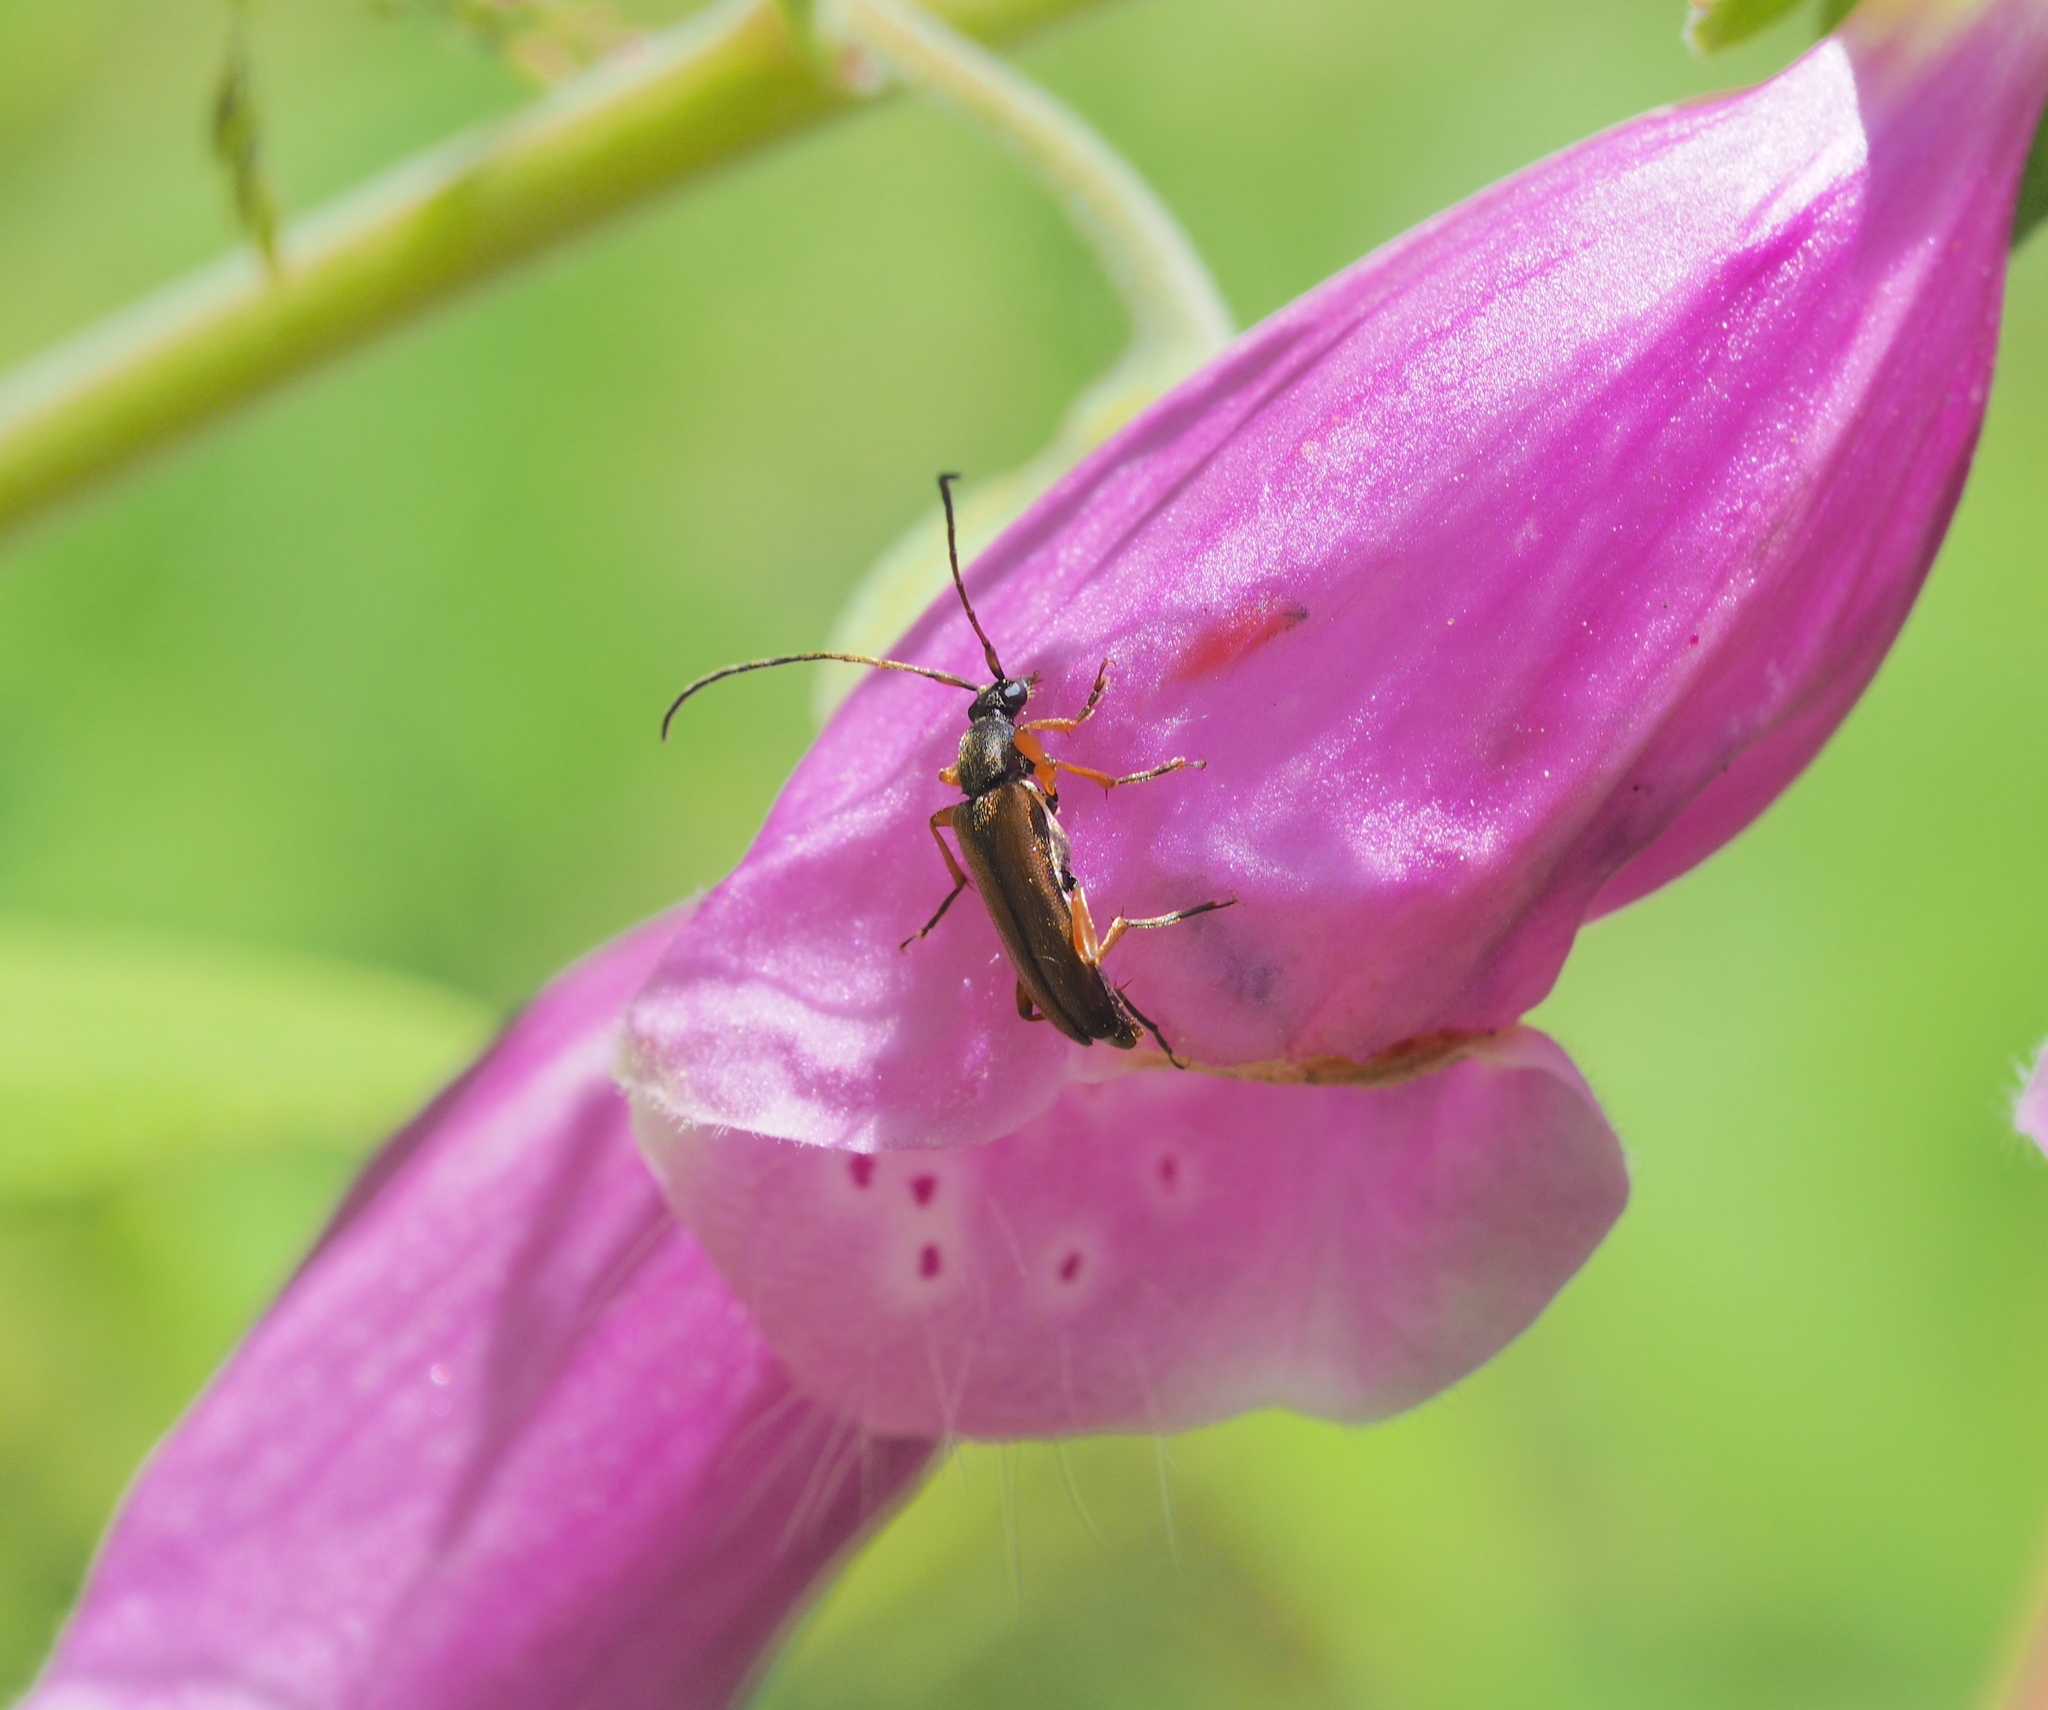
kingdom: Animalia
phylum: Arthropoda
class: Insecta
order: Coleoptera
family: Cerambycidae
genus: Alosterna
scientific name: Alosterna tabacicolor
